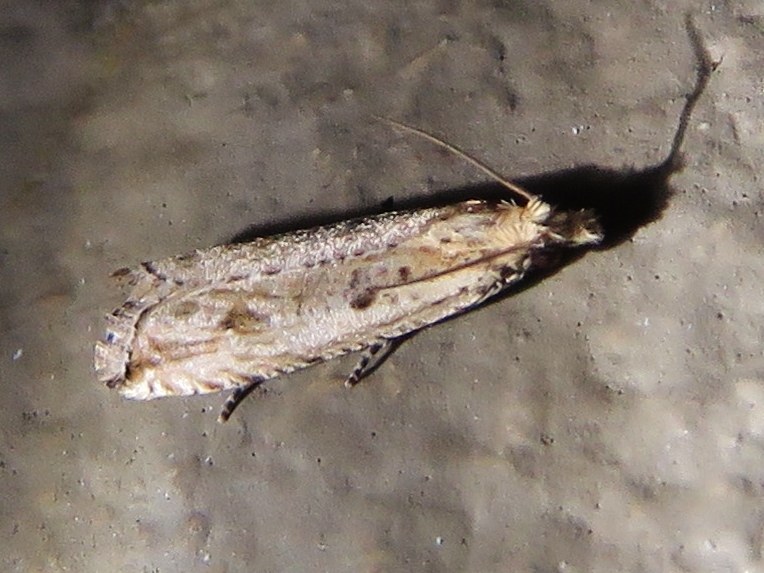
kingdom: Animalia
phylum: Arthropoda
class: Insecta
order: Lepidoptera
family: Tortricidae
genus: Bactra
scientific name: Bactra verutana
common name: Javelin moth
